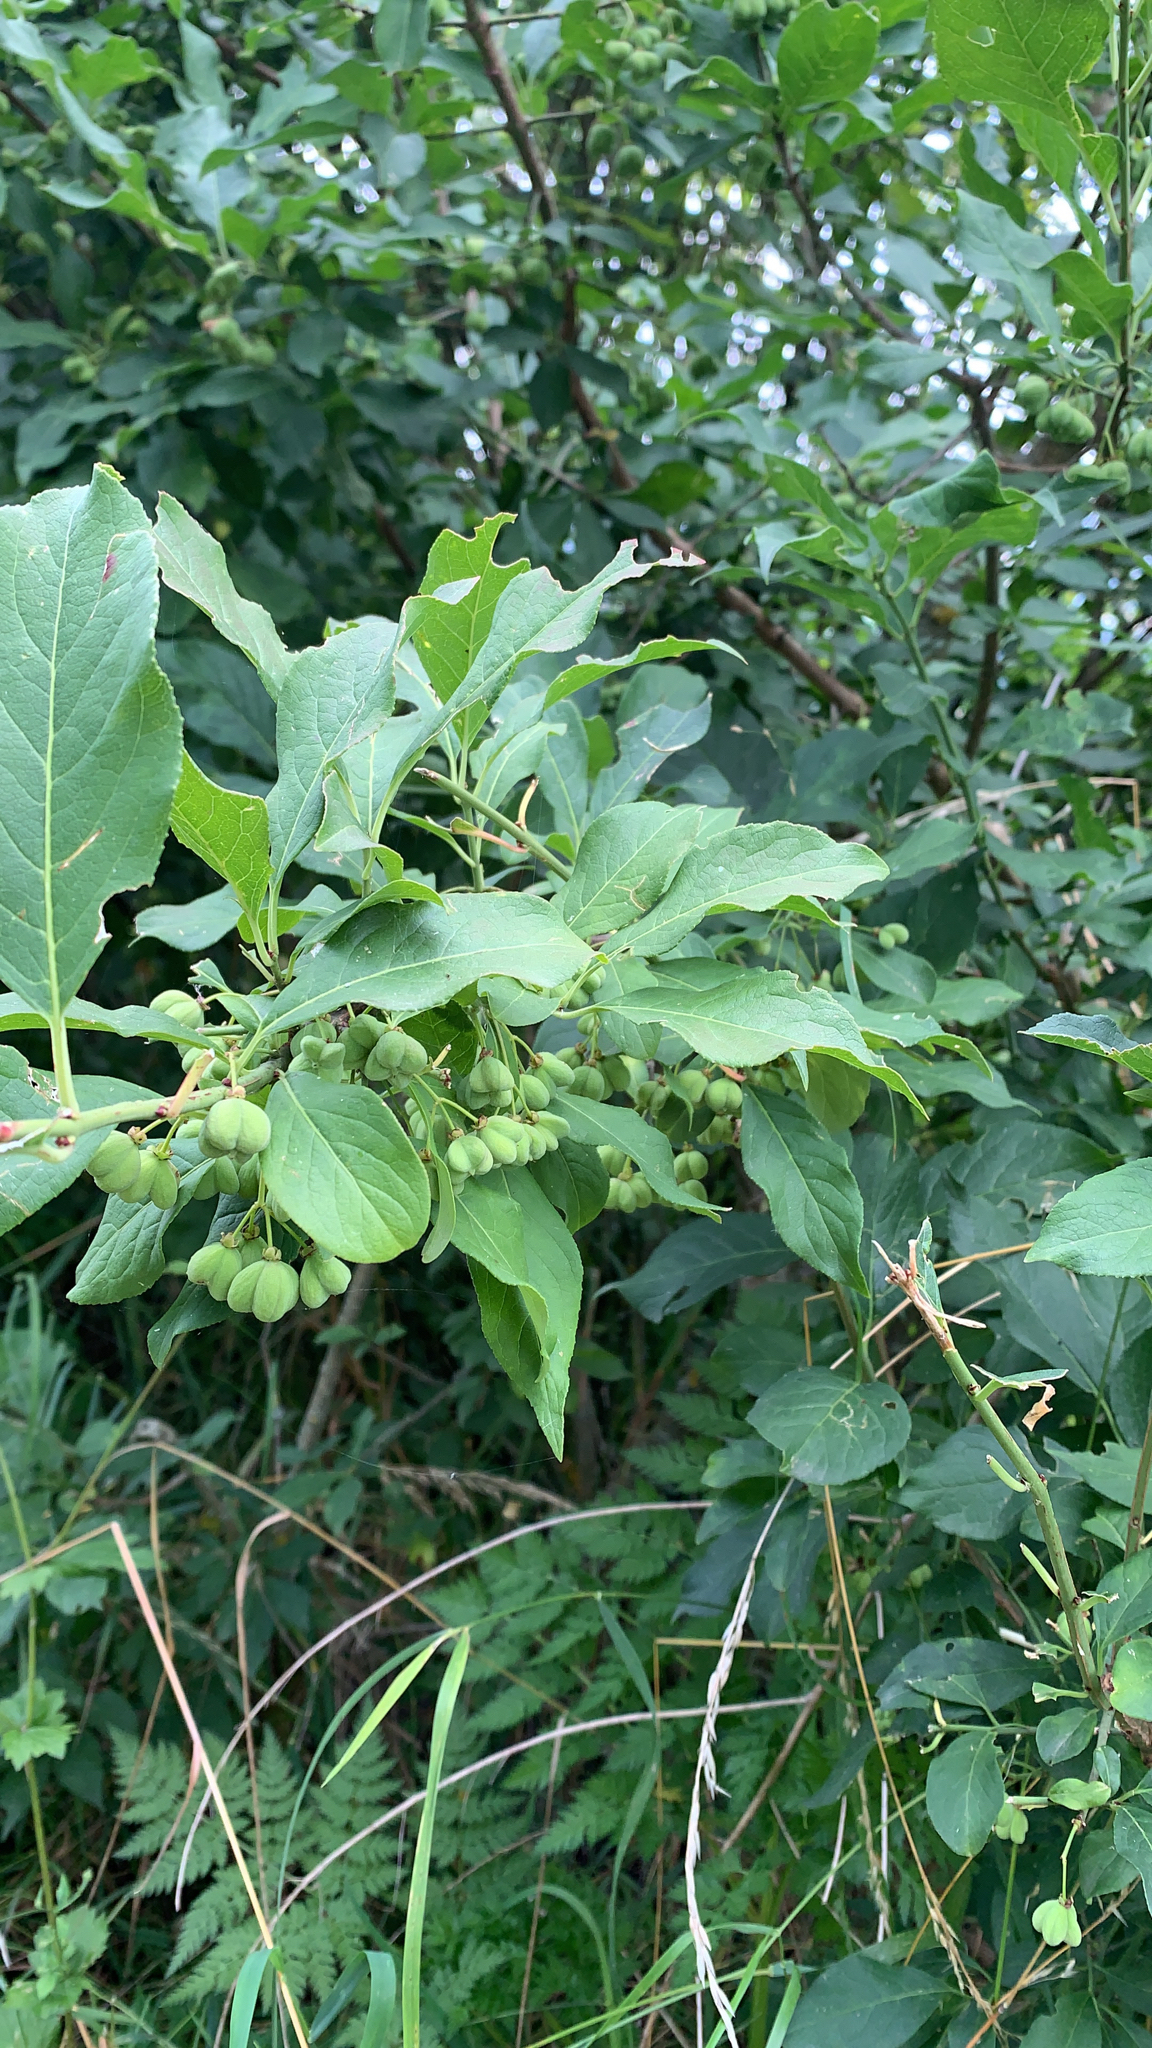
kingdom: Plantae
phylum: Tracheophyta
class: Magnoliopsida
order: Celastrales
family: Celastraceae
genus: Euonymus
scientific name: Euonymus europaeus
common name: Spindle
